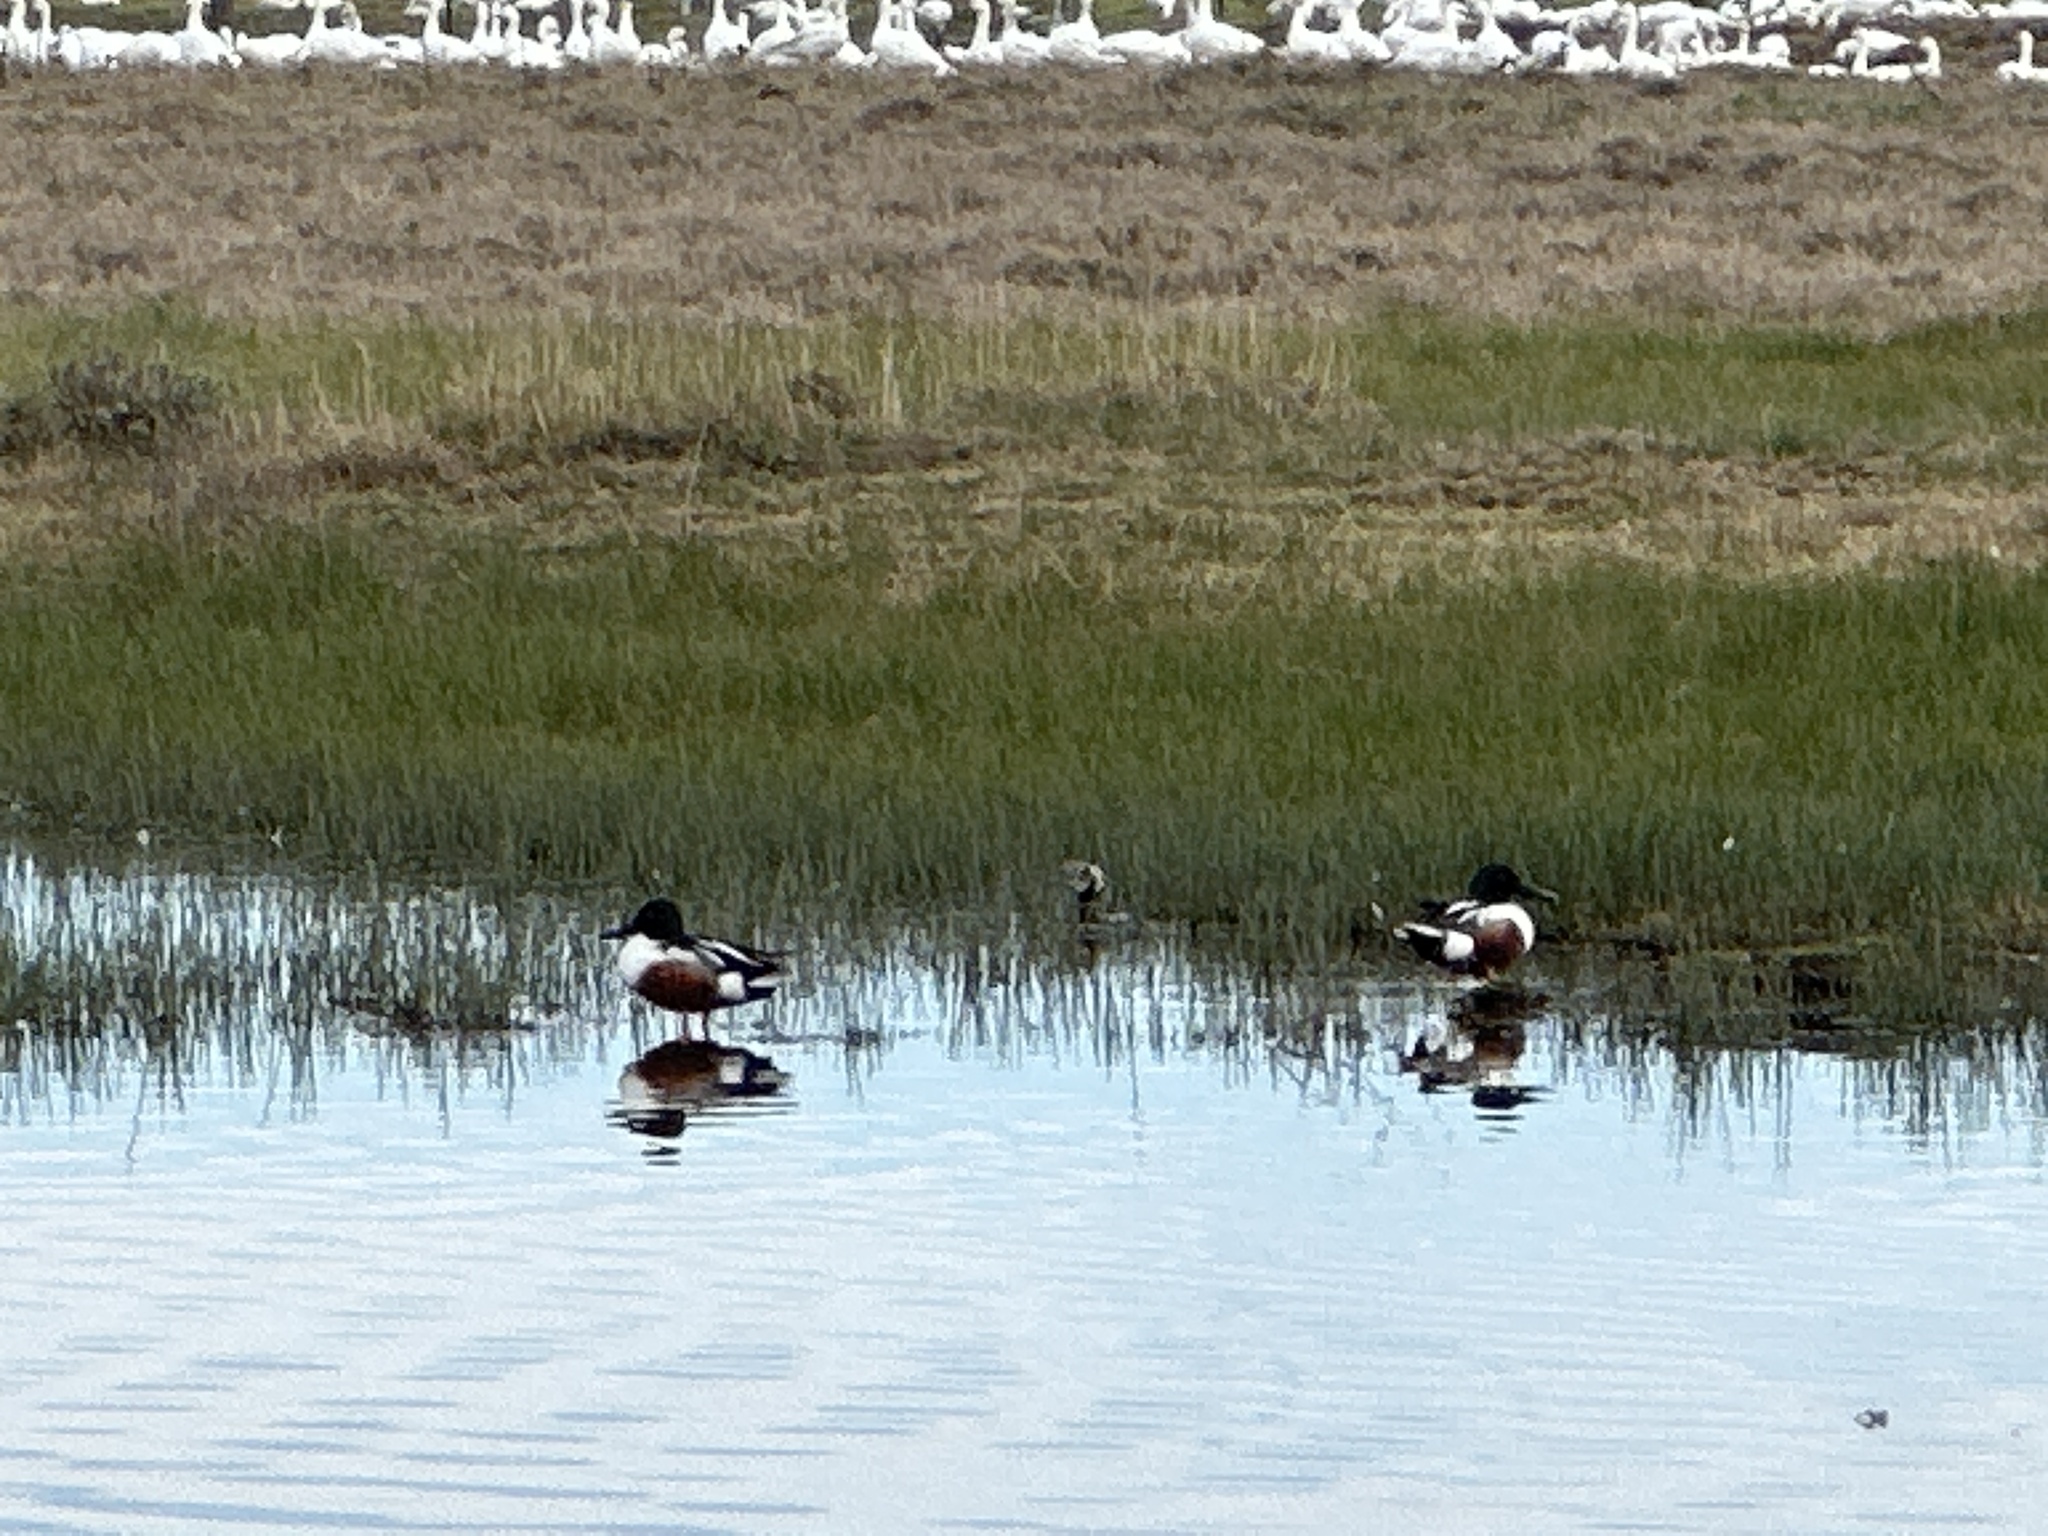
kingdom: Animalia
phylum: Chordata
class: Aves
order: Anseriformes
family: Anatidae
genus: Spatula
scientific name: Spatula clypeata
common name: Northern shoveler
